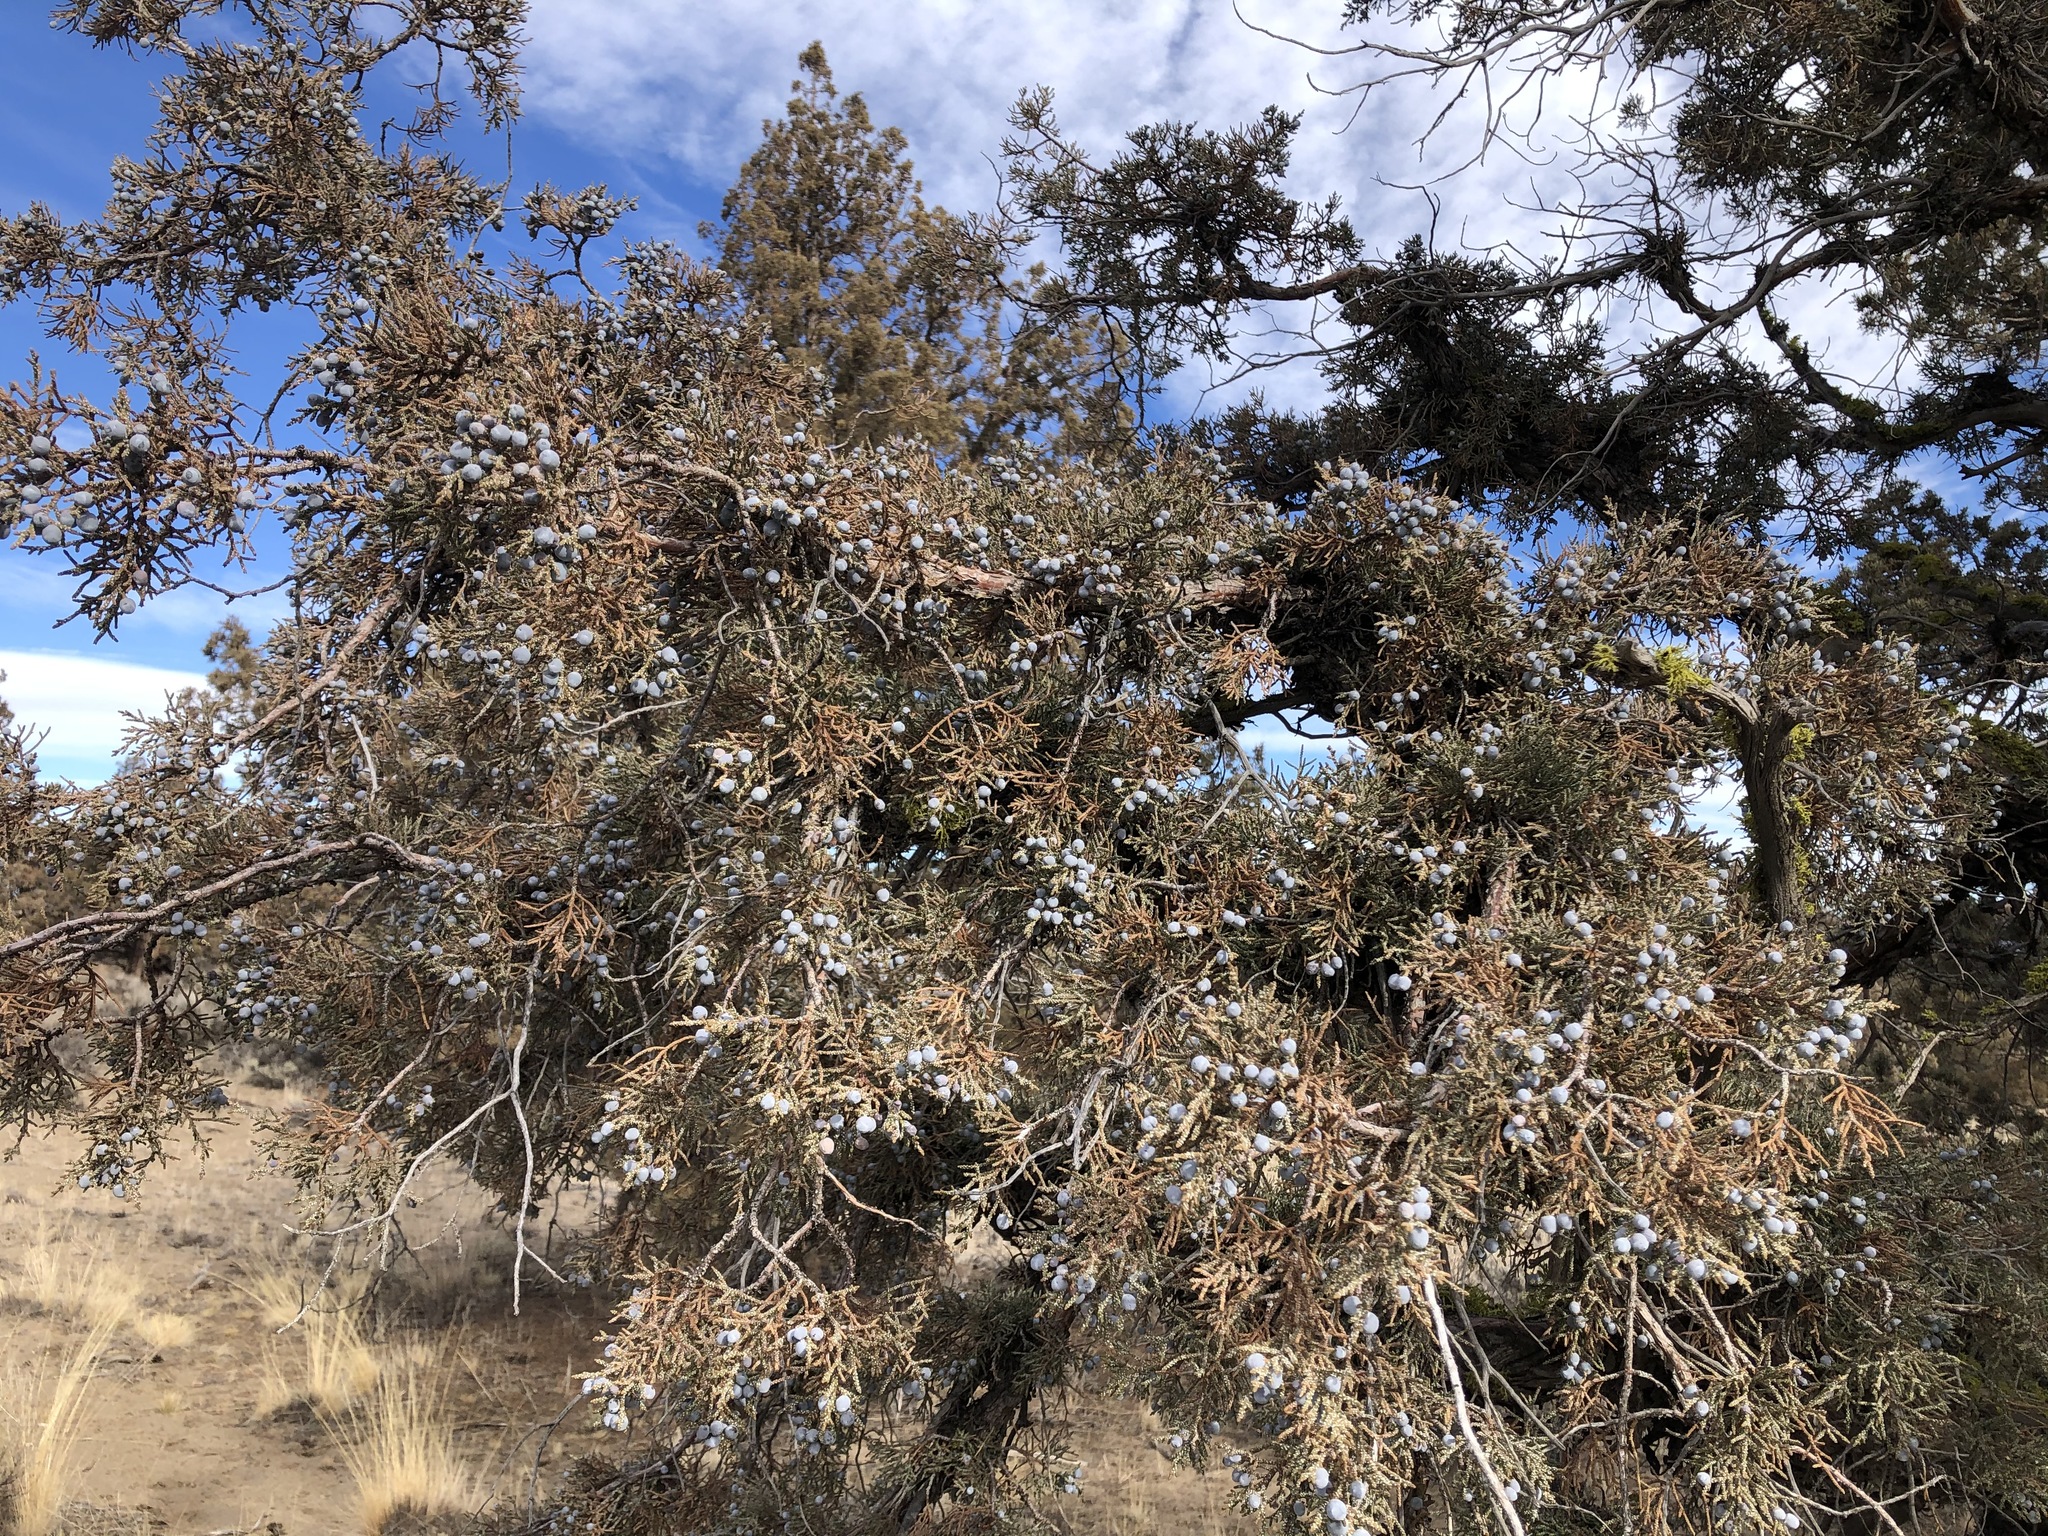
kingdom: Plantae
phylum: Tracheophyta
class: Pinopsida
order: Pinales
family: Cupressaceae
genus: Juniperus
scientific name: Juniperus occidentalis
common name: Western juniper
